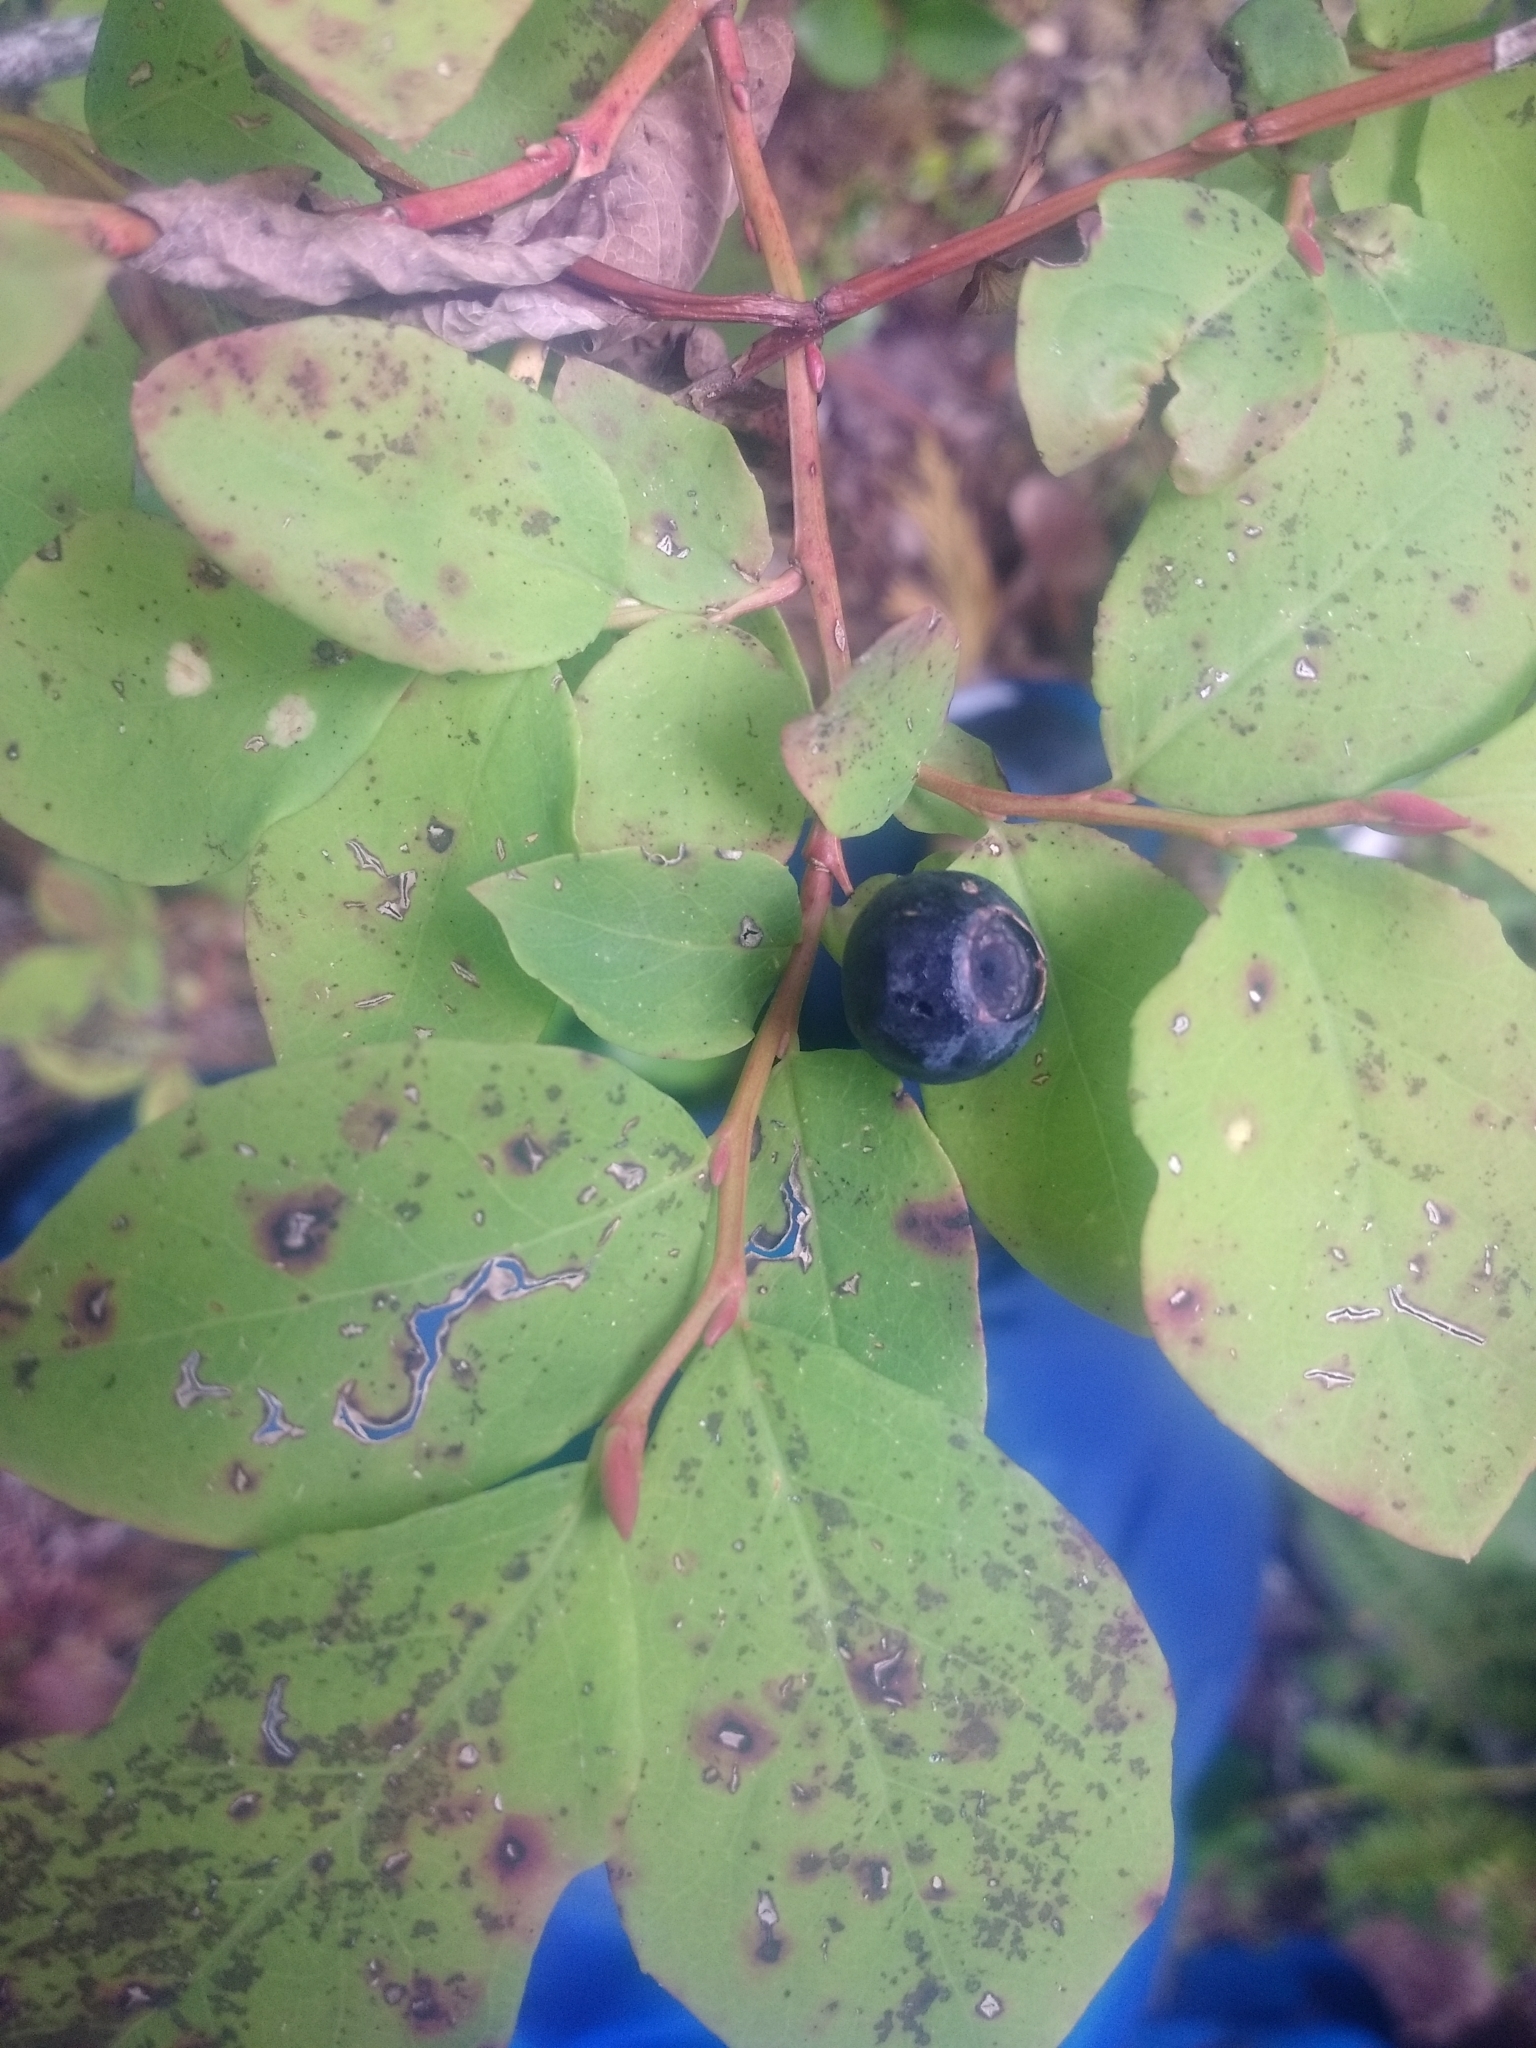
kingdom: Plantae
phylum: Tracheophyta
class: Magnoliopsida
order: Ericales
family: Ericaceae
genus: Vaccinium
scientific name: Vaccinium ovalifolium
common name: Early blueberry
